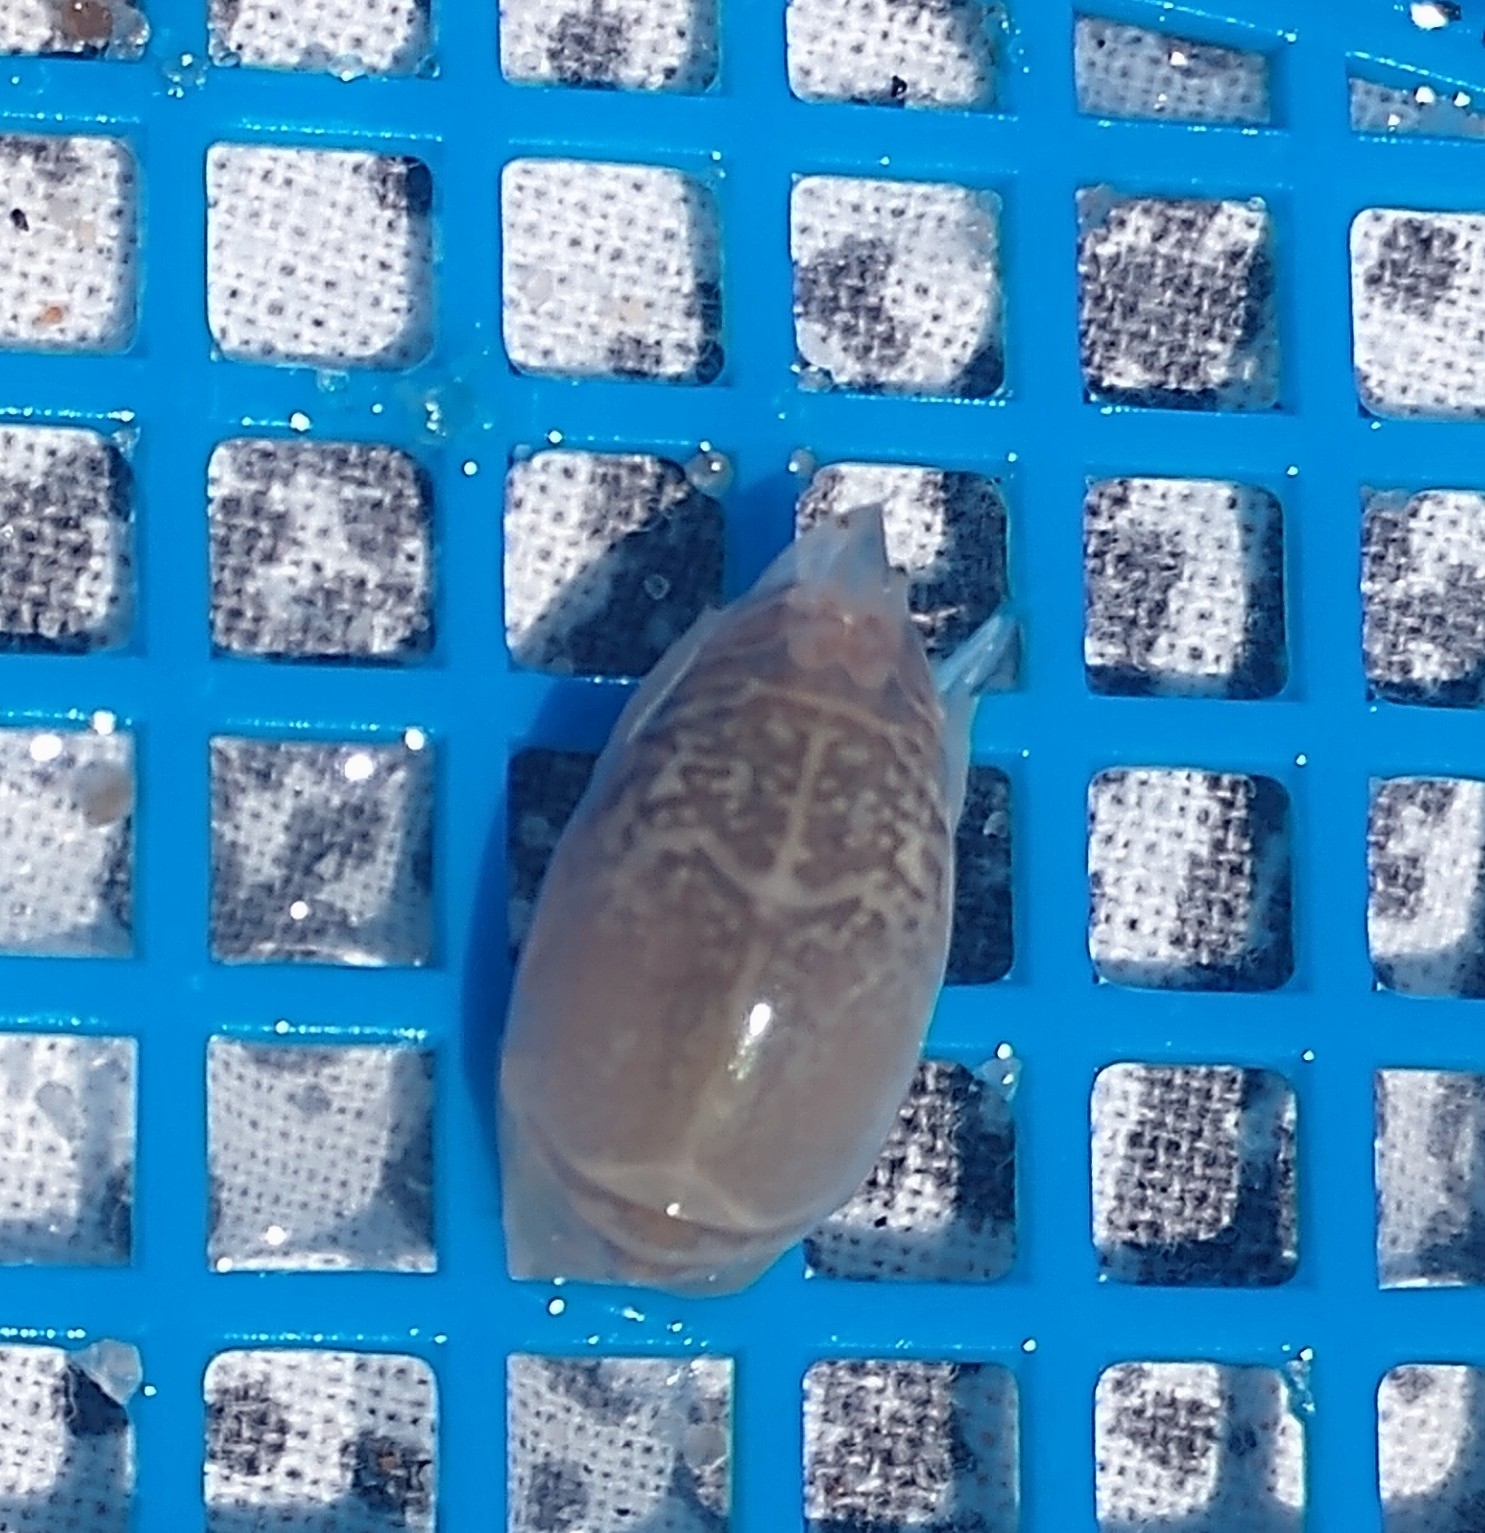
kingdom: Animalia
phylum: Arthropoda
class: Malacostraca
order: Decapoda
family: Hippidae
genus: Emerita
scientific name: Emerita talpoida
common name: Atlantic sand crab
